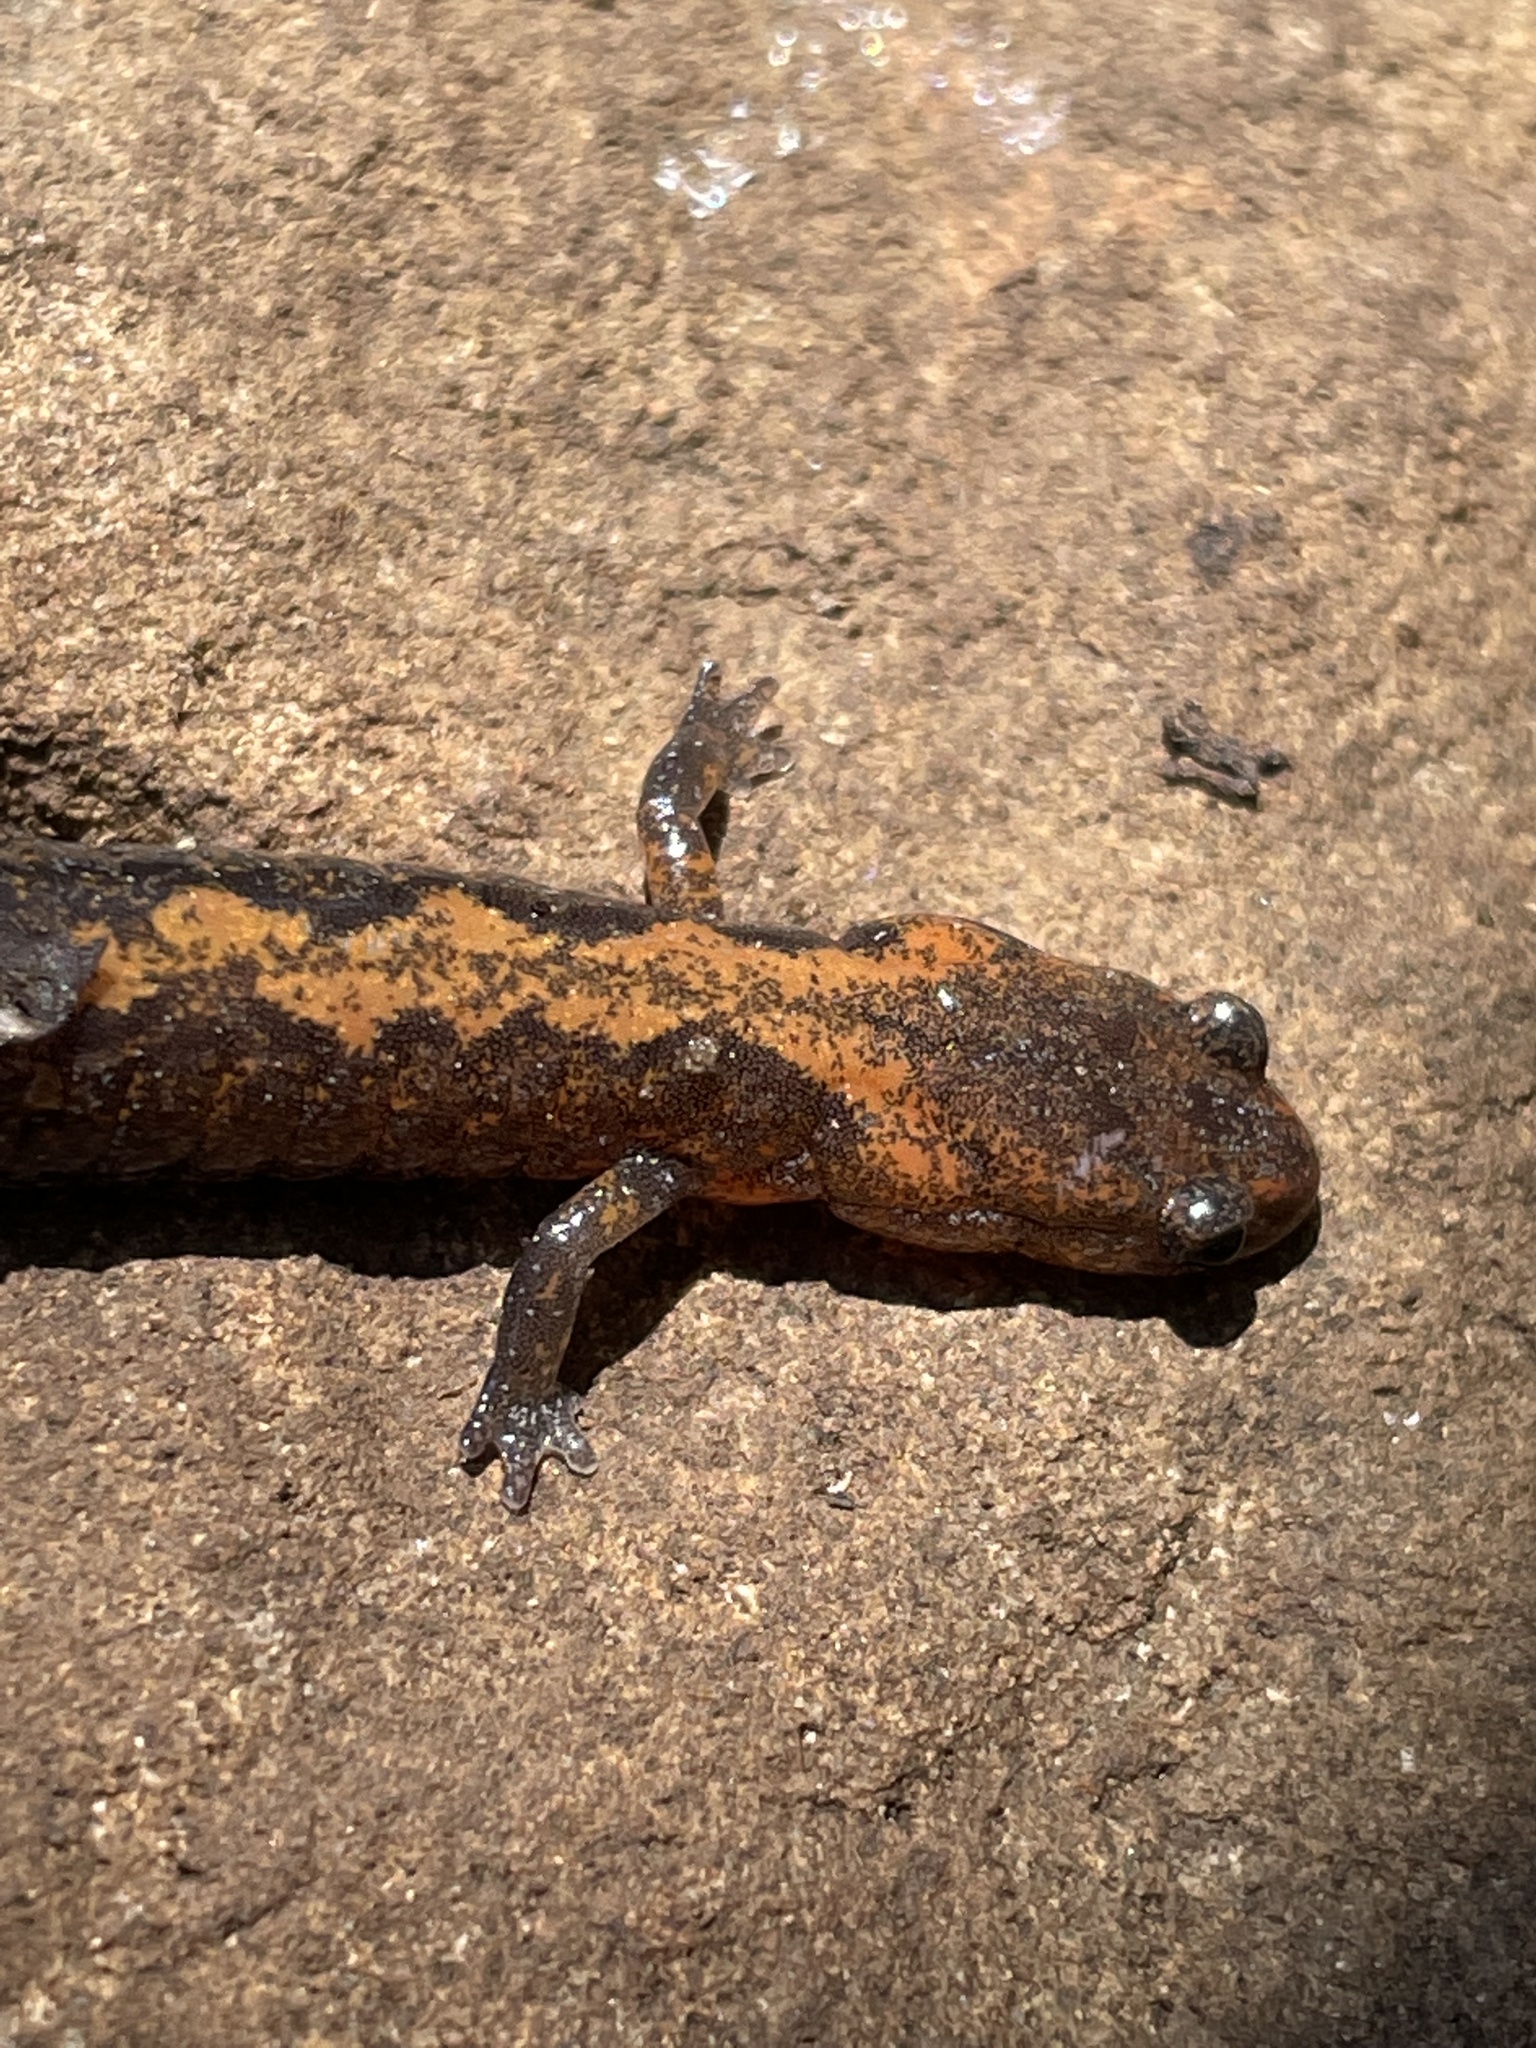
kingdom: Animalia
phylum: Chordata
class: Amphibia
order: Caudata
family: Plethodontidae
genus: Plethodon
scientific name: Plethodon dorsalis
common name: Northern zigzag salamander
